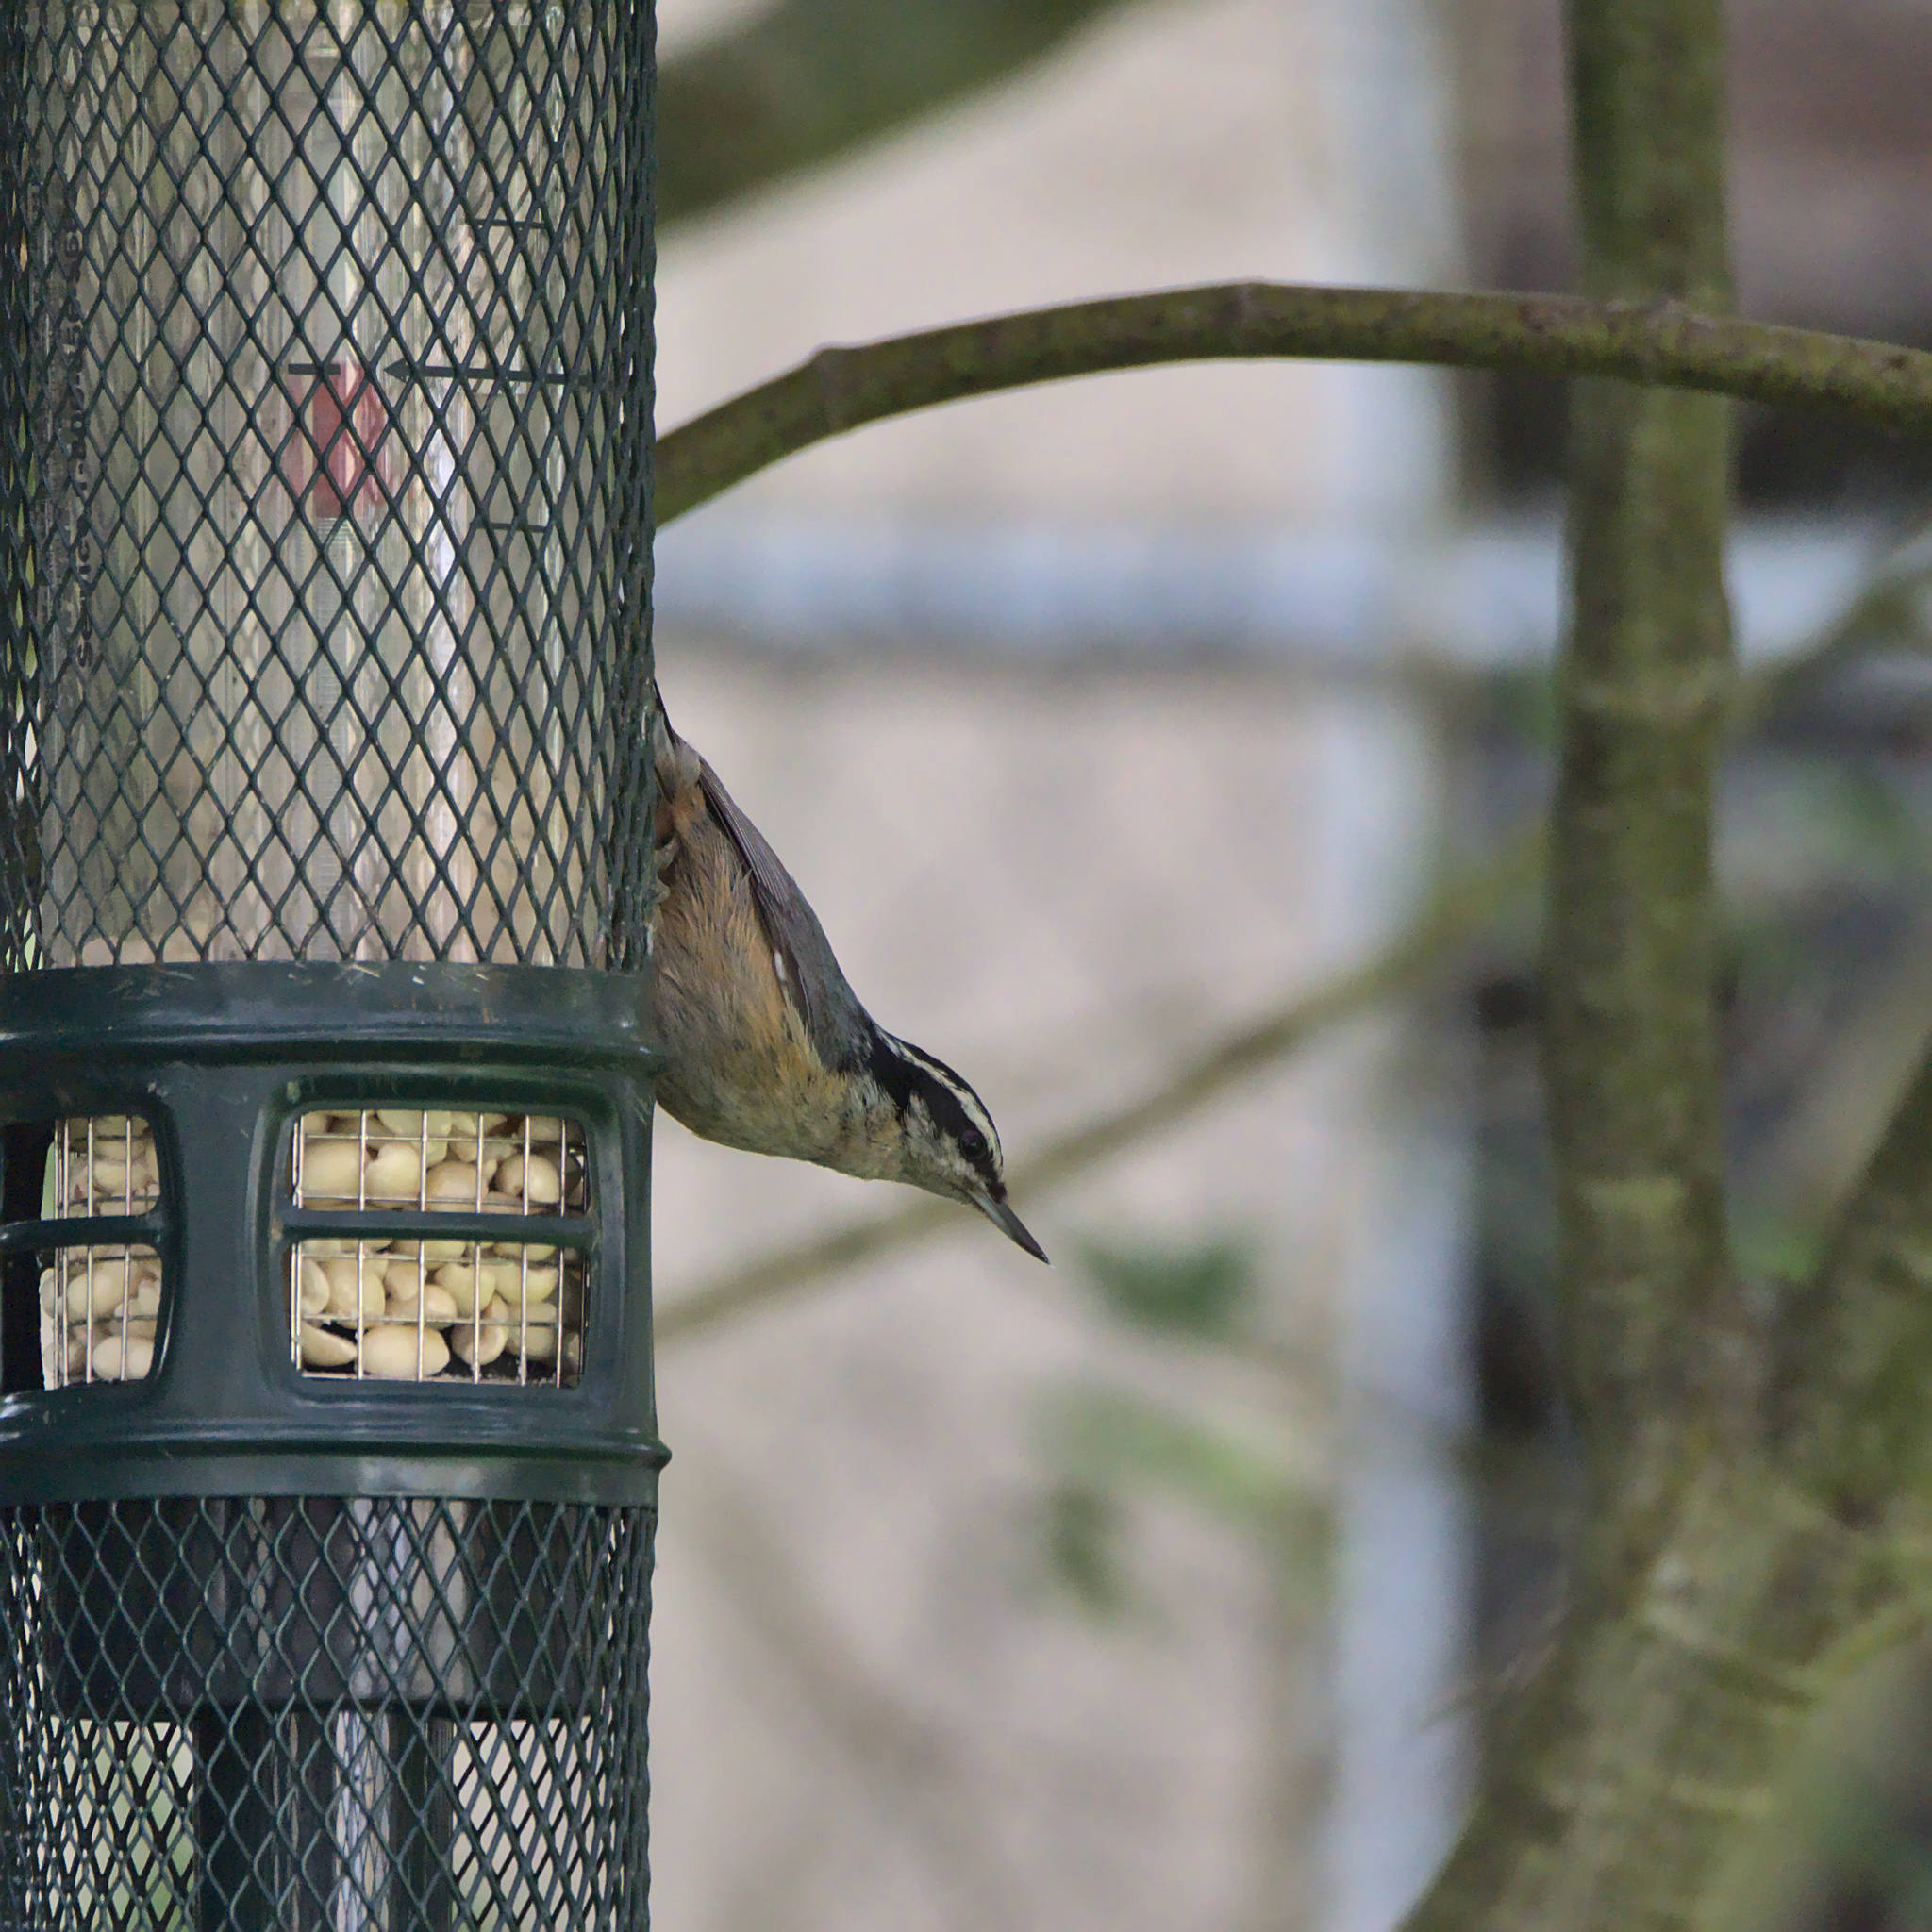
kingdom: Animalia
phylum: Chordata
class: Aves
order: Passeriformes
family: Sittidae
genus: Sitta
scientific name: Sitta canadensis
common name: Red-breasted nuthatch
